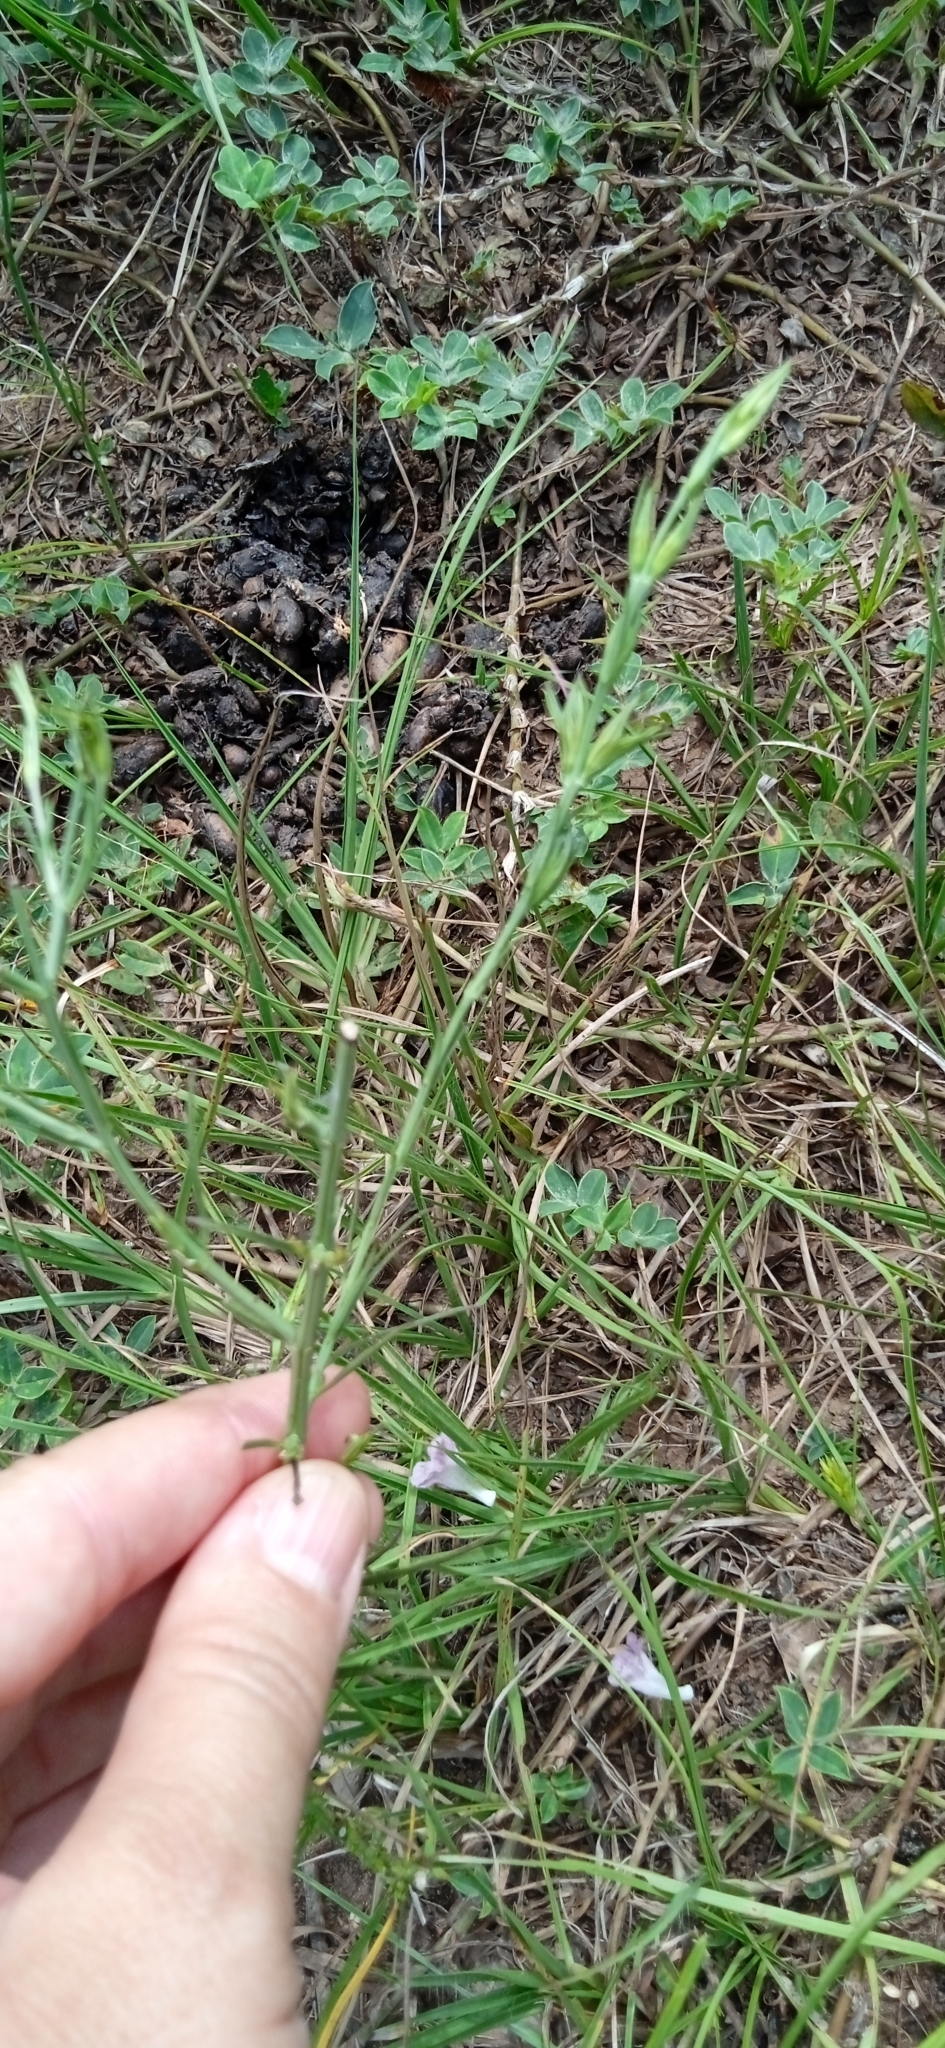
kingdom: Plantae
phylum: Tracheophyta
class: Magnoliopsida
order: Lamiales
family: Orobanchaceae
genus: Agalinis
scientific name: Agalinis communis
